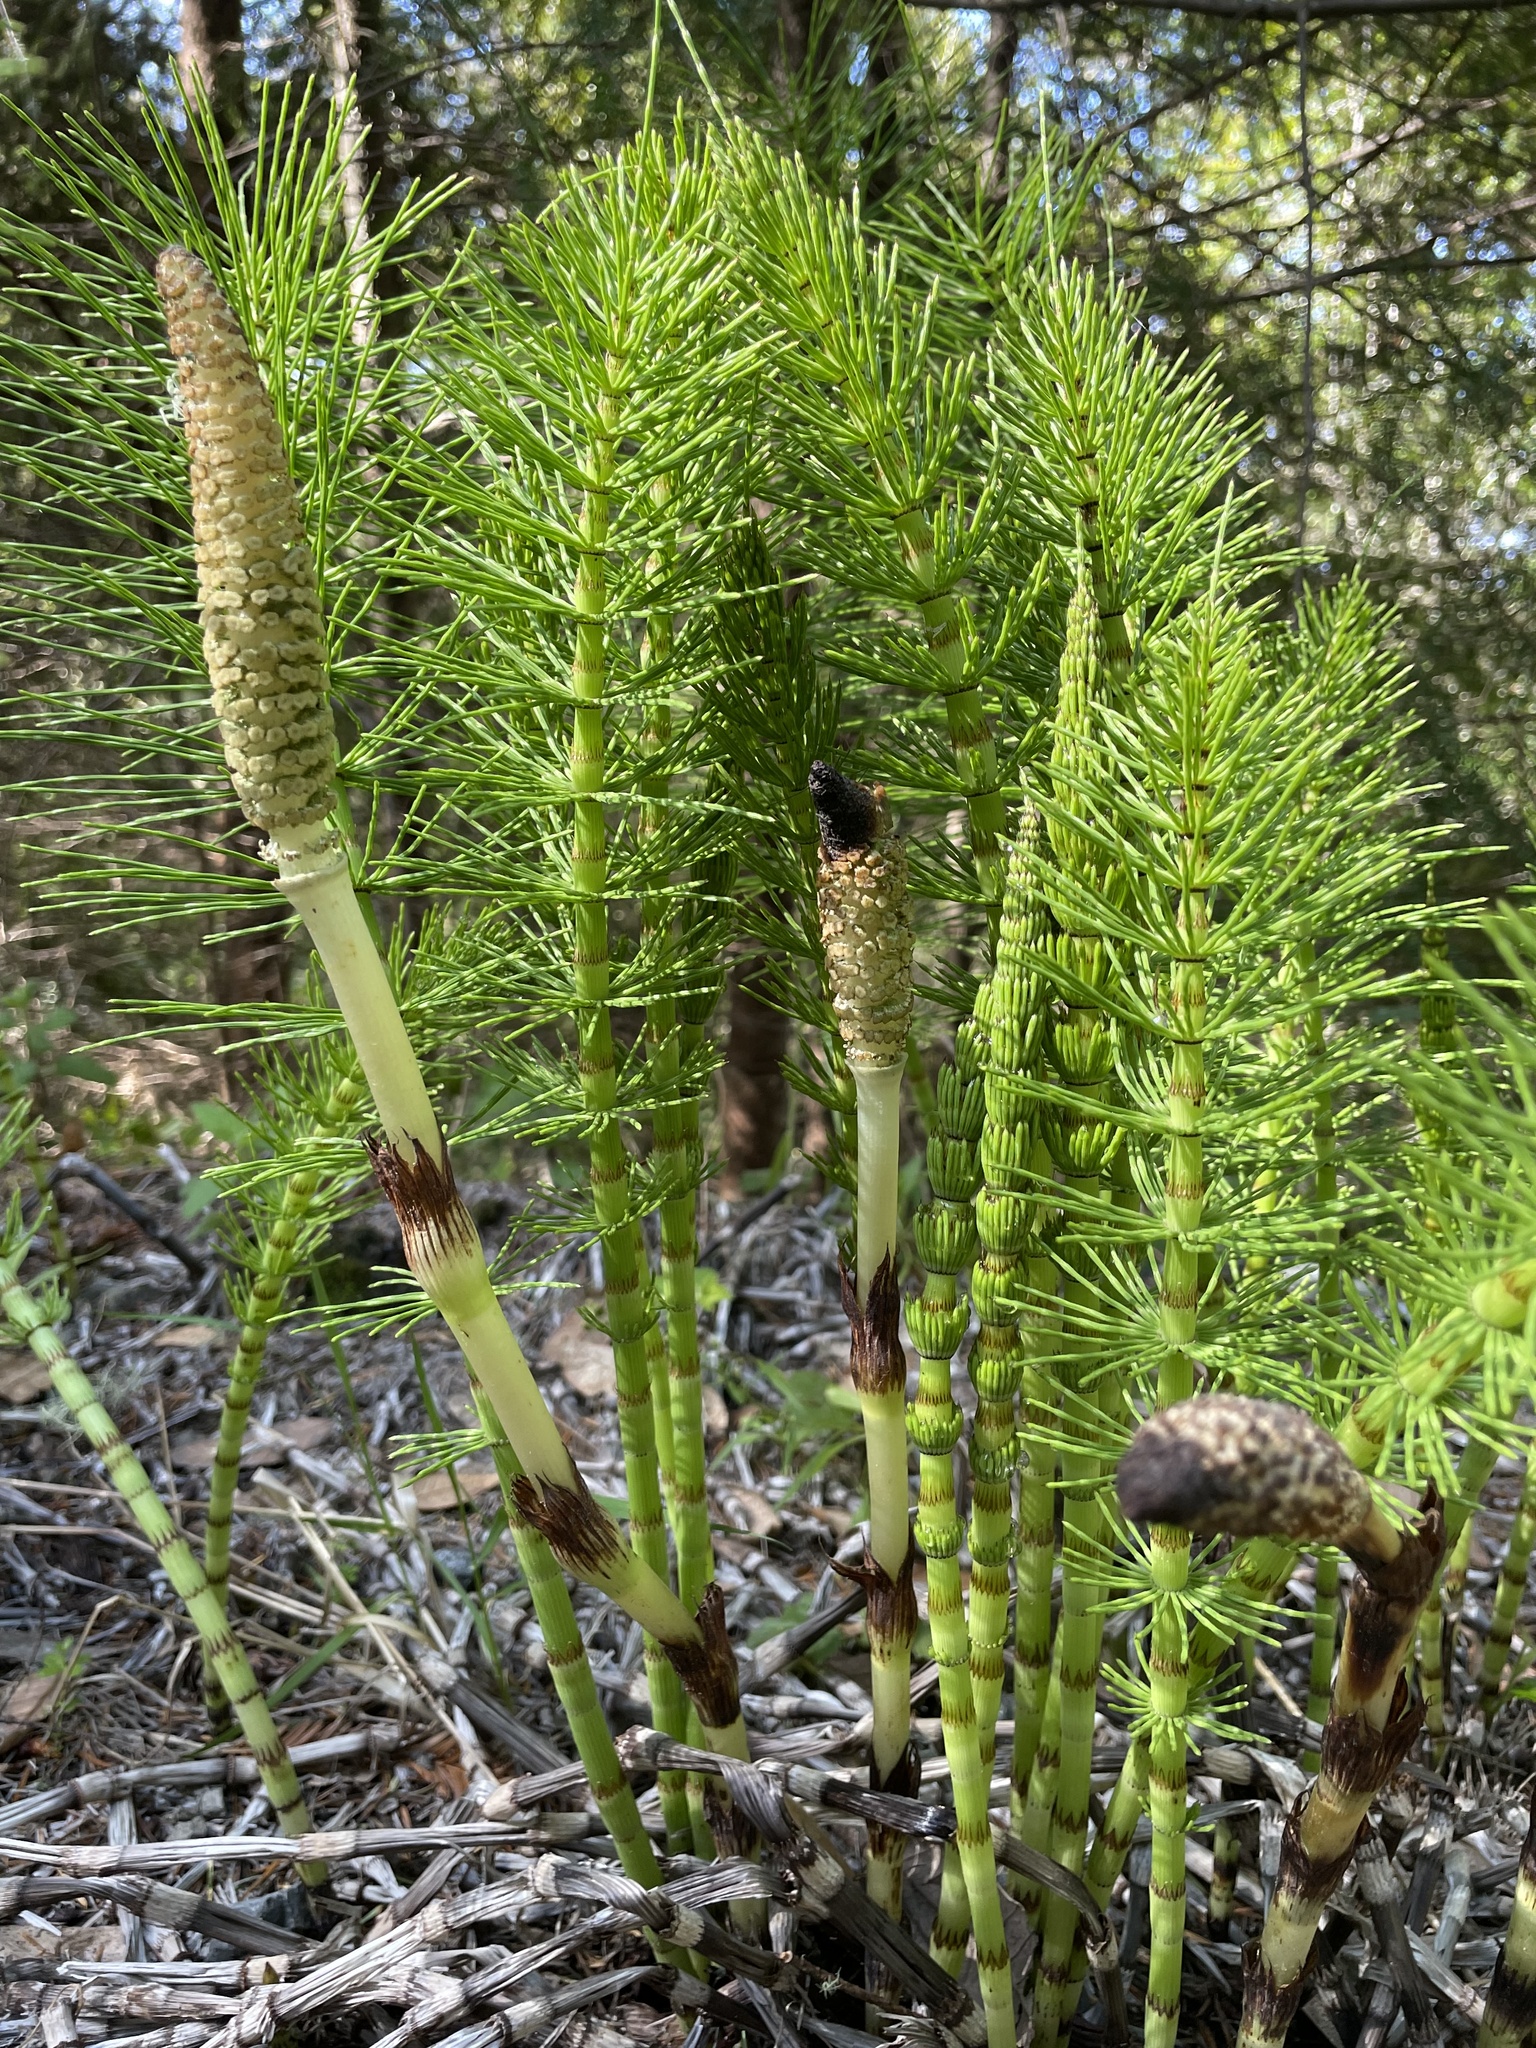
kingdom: Plantae
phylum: Tracheophyta
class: Polypodiopsida
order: Equisetales
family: Equisetaceae
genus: Equisetum
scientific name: Equisetum telmateia
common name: Great horsetail
